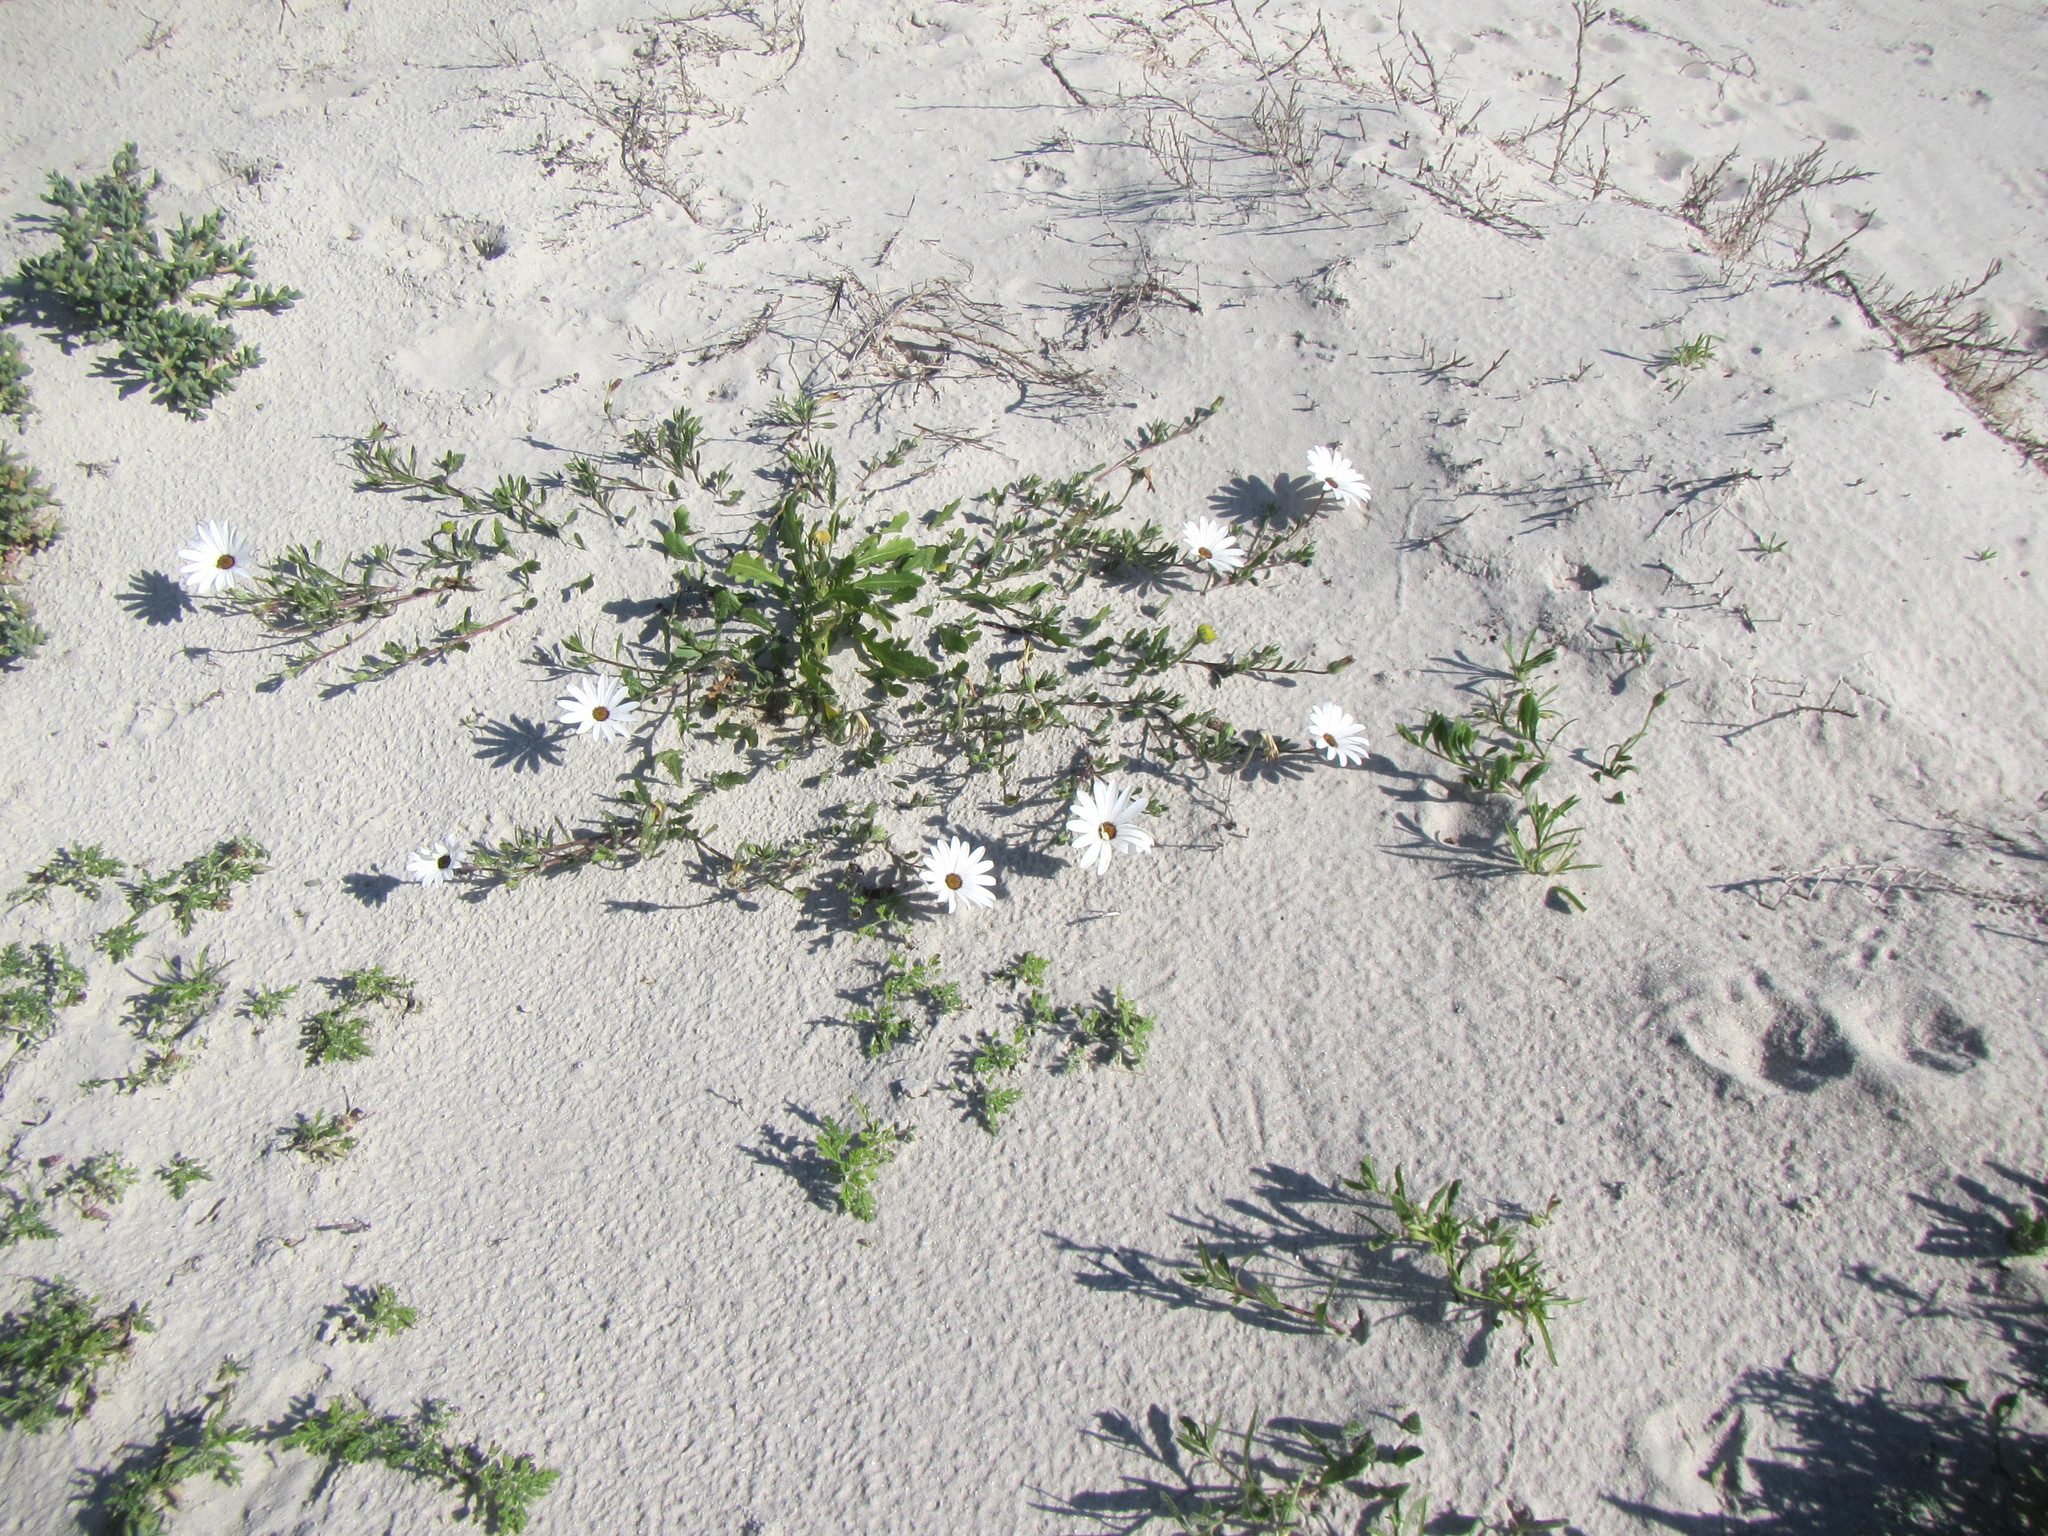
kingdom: Plantae
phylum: Tracheophyta
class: Magnoliopsida
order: Asterales
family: Asteraceae
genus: Dimorphotheca
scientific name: Dimorphotheca pluvialis
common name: Weather prophet
